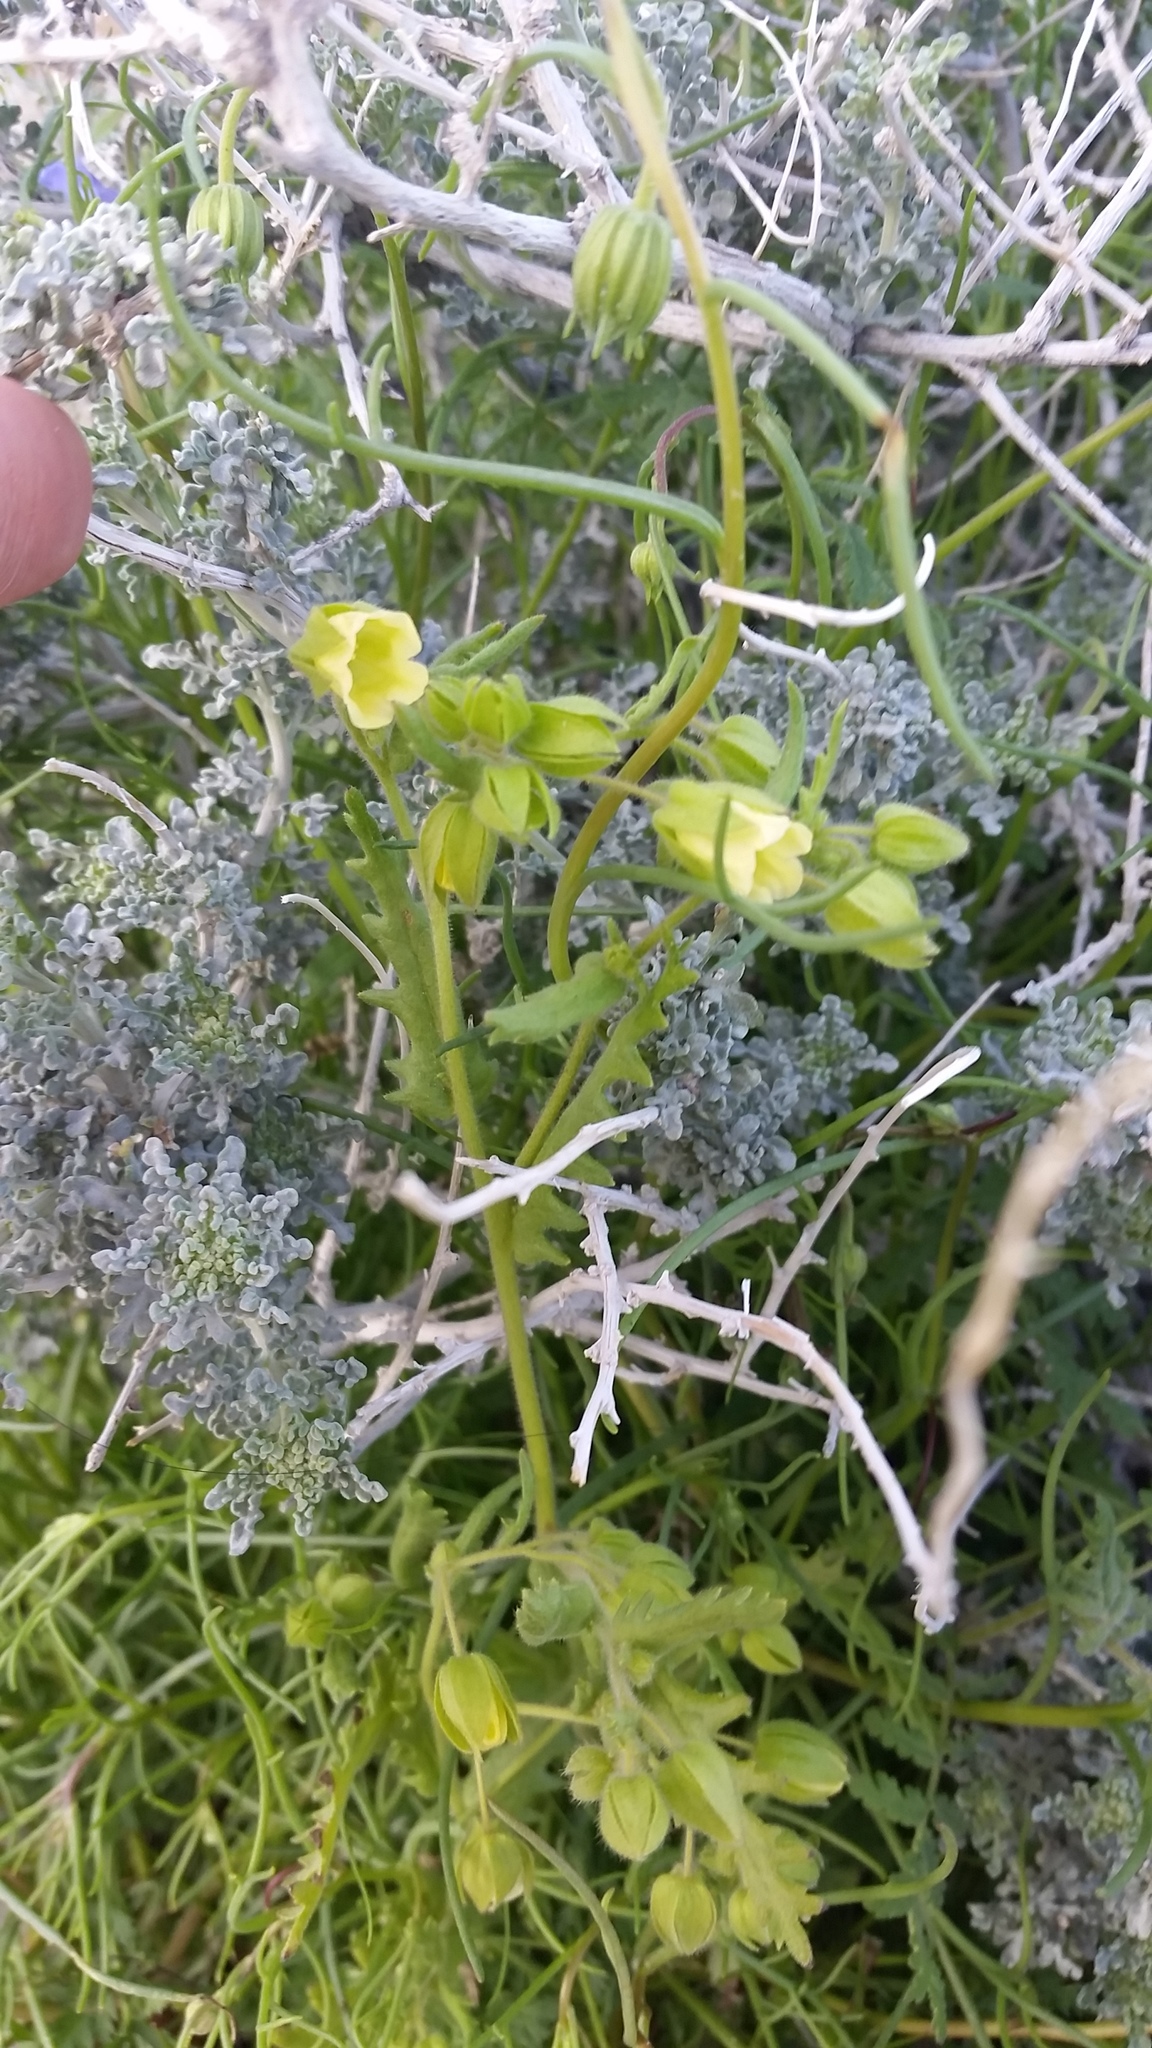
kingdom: Plantae
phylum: Tracheophyta
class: Magnoliopsida
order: Boraginales
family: Hydrophyllaceae
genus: Emmenanthe
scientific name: Emmenanthe penduliflora
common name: Whispering-bells
